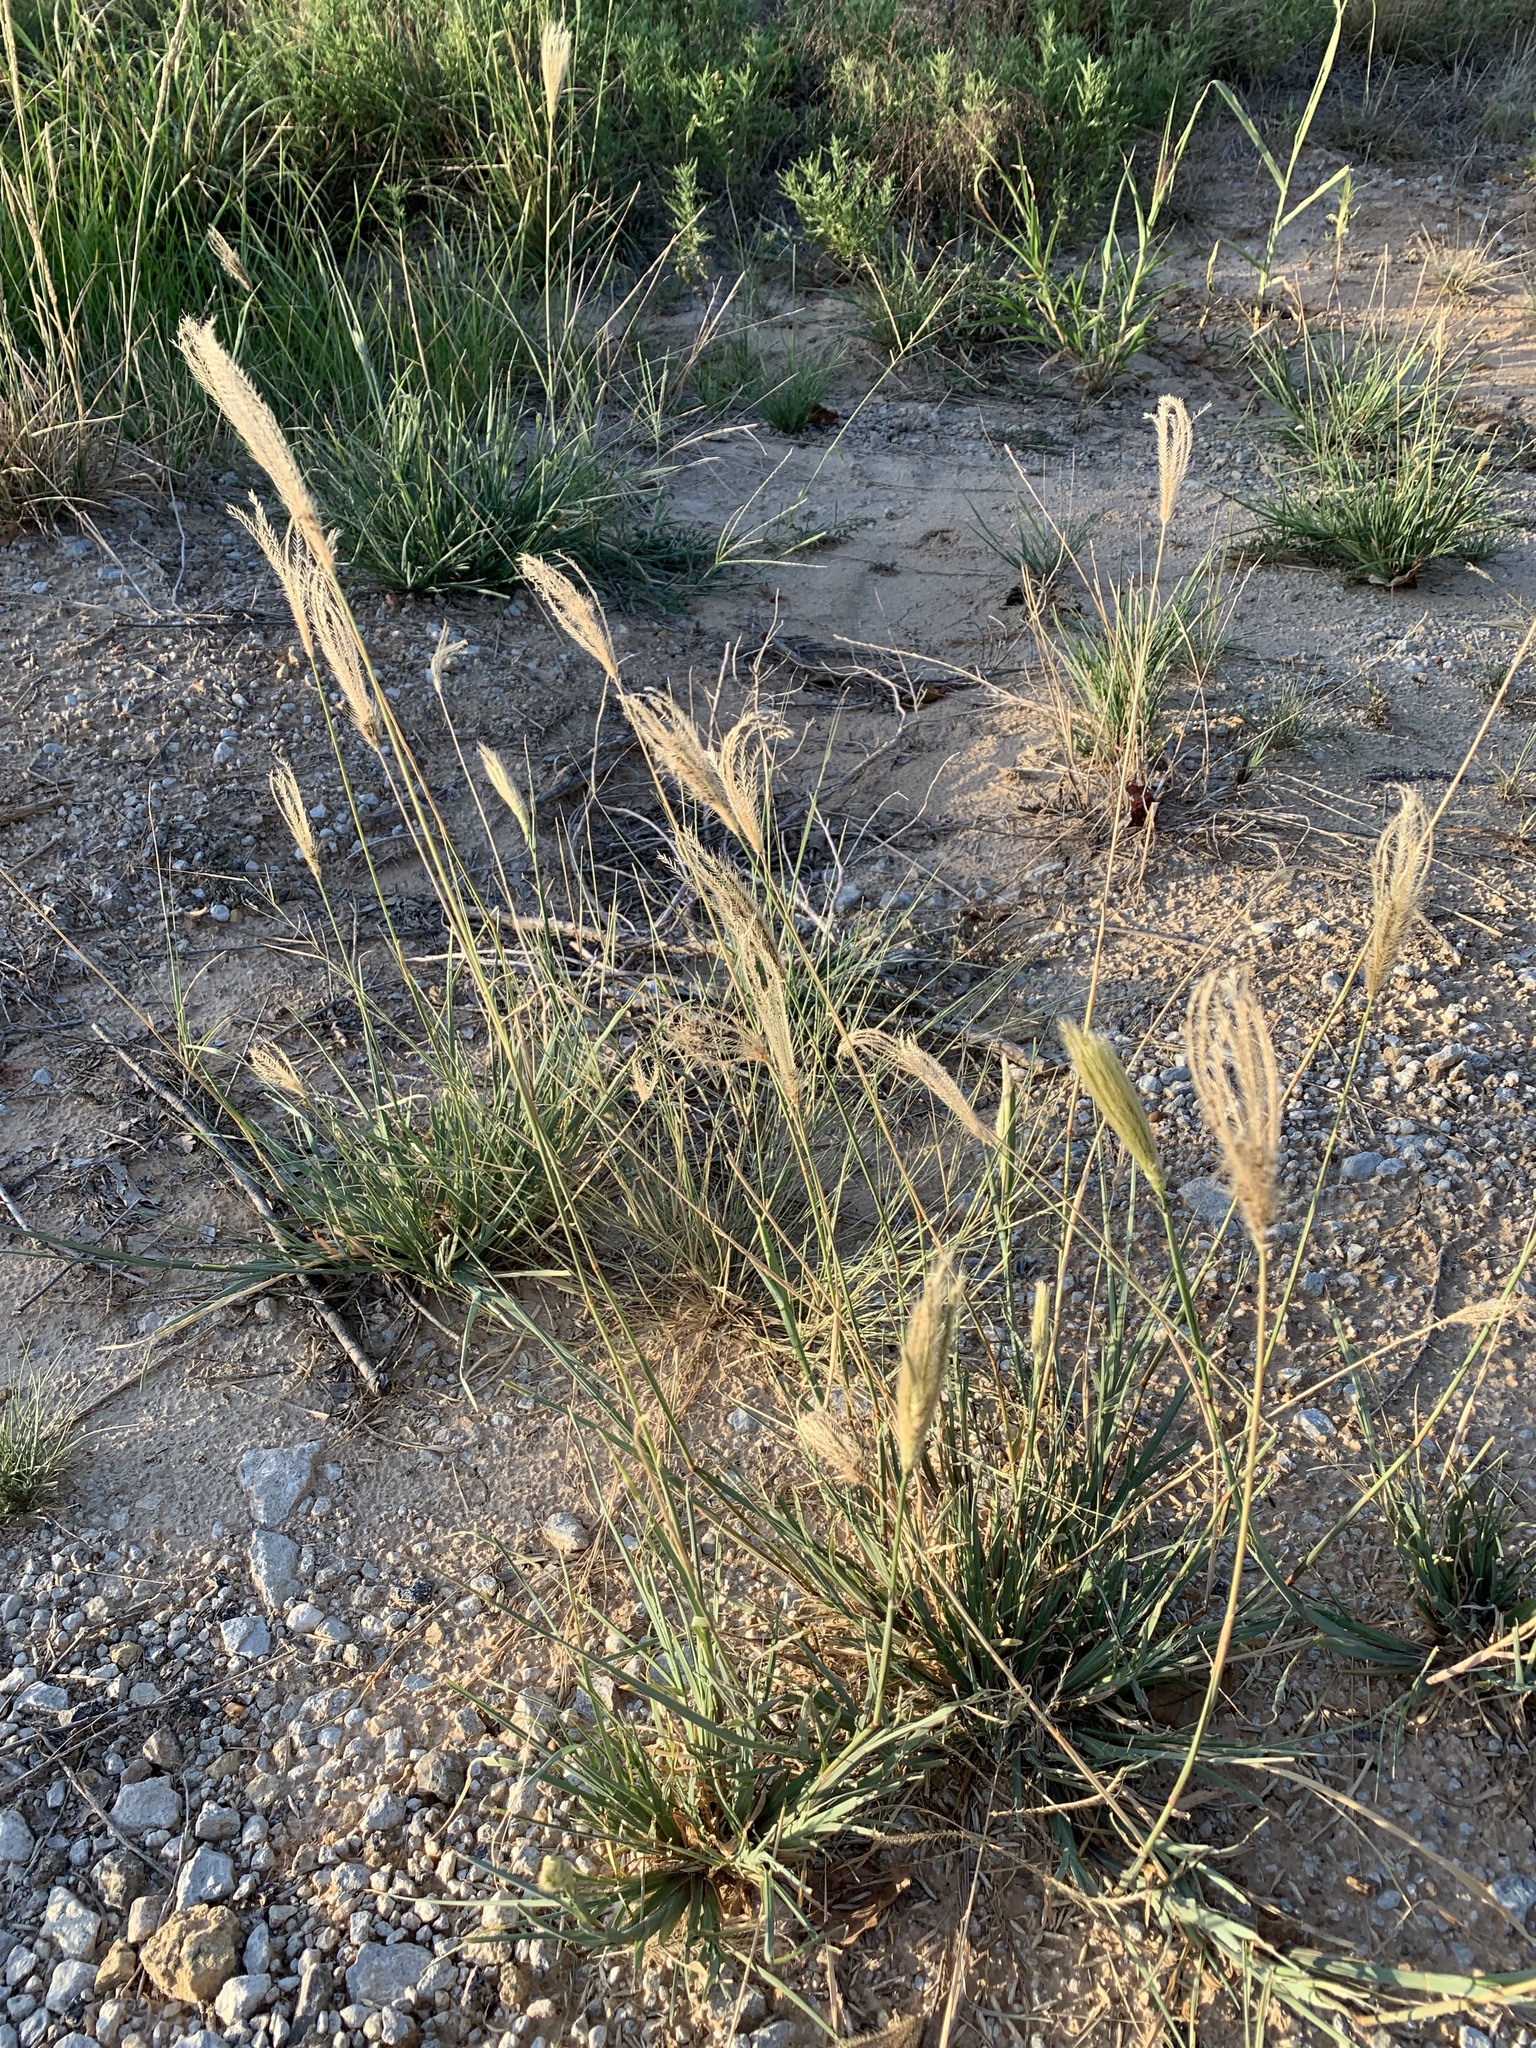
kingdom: Plantae
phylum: Tracheophyta
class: Liliopsida
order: Poales
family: Poaceae
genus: Chloris
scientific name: Chloris virgata
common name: Feathery rhodes-grass
